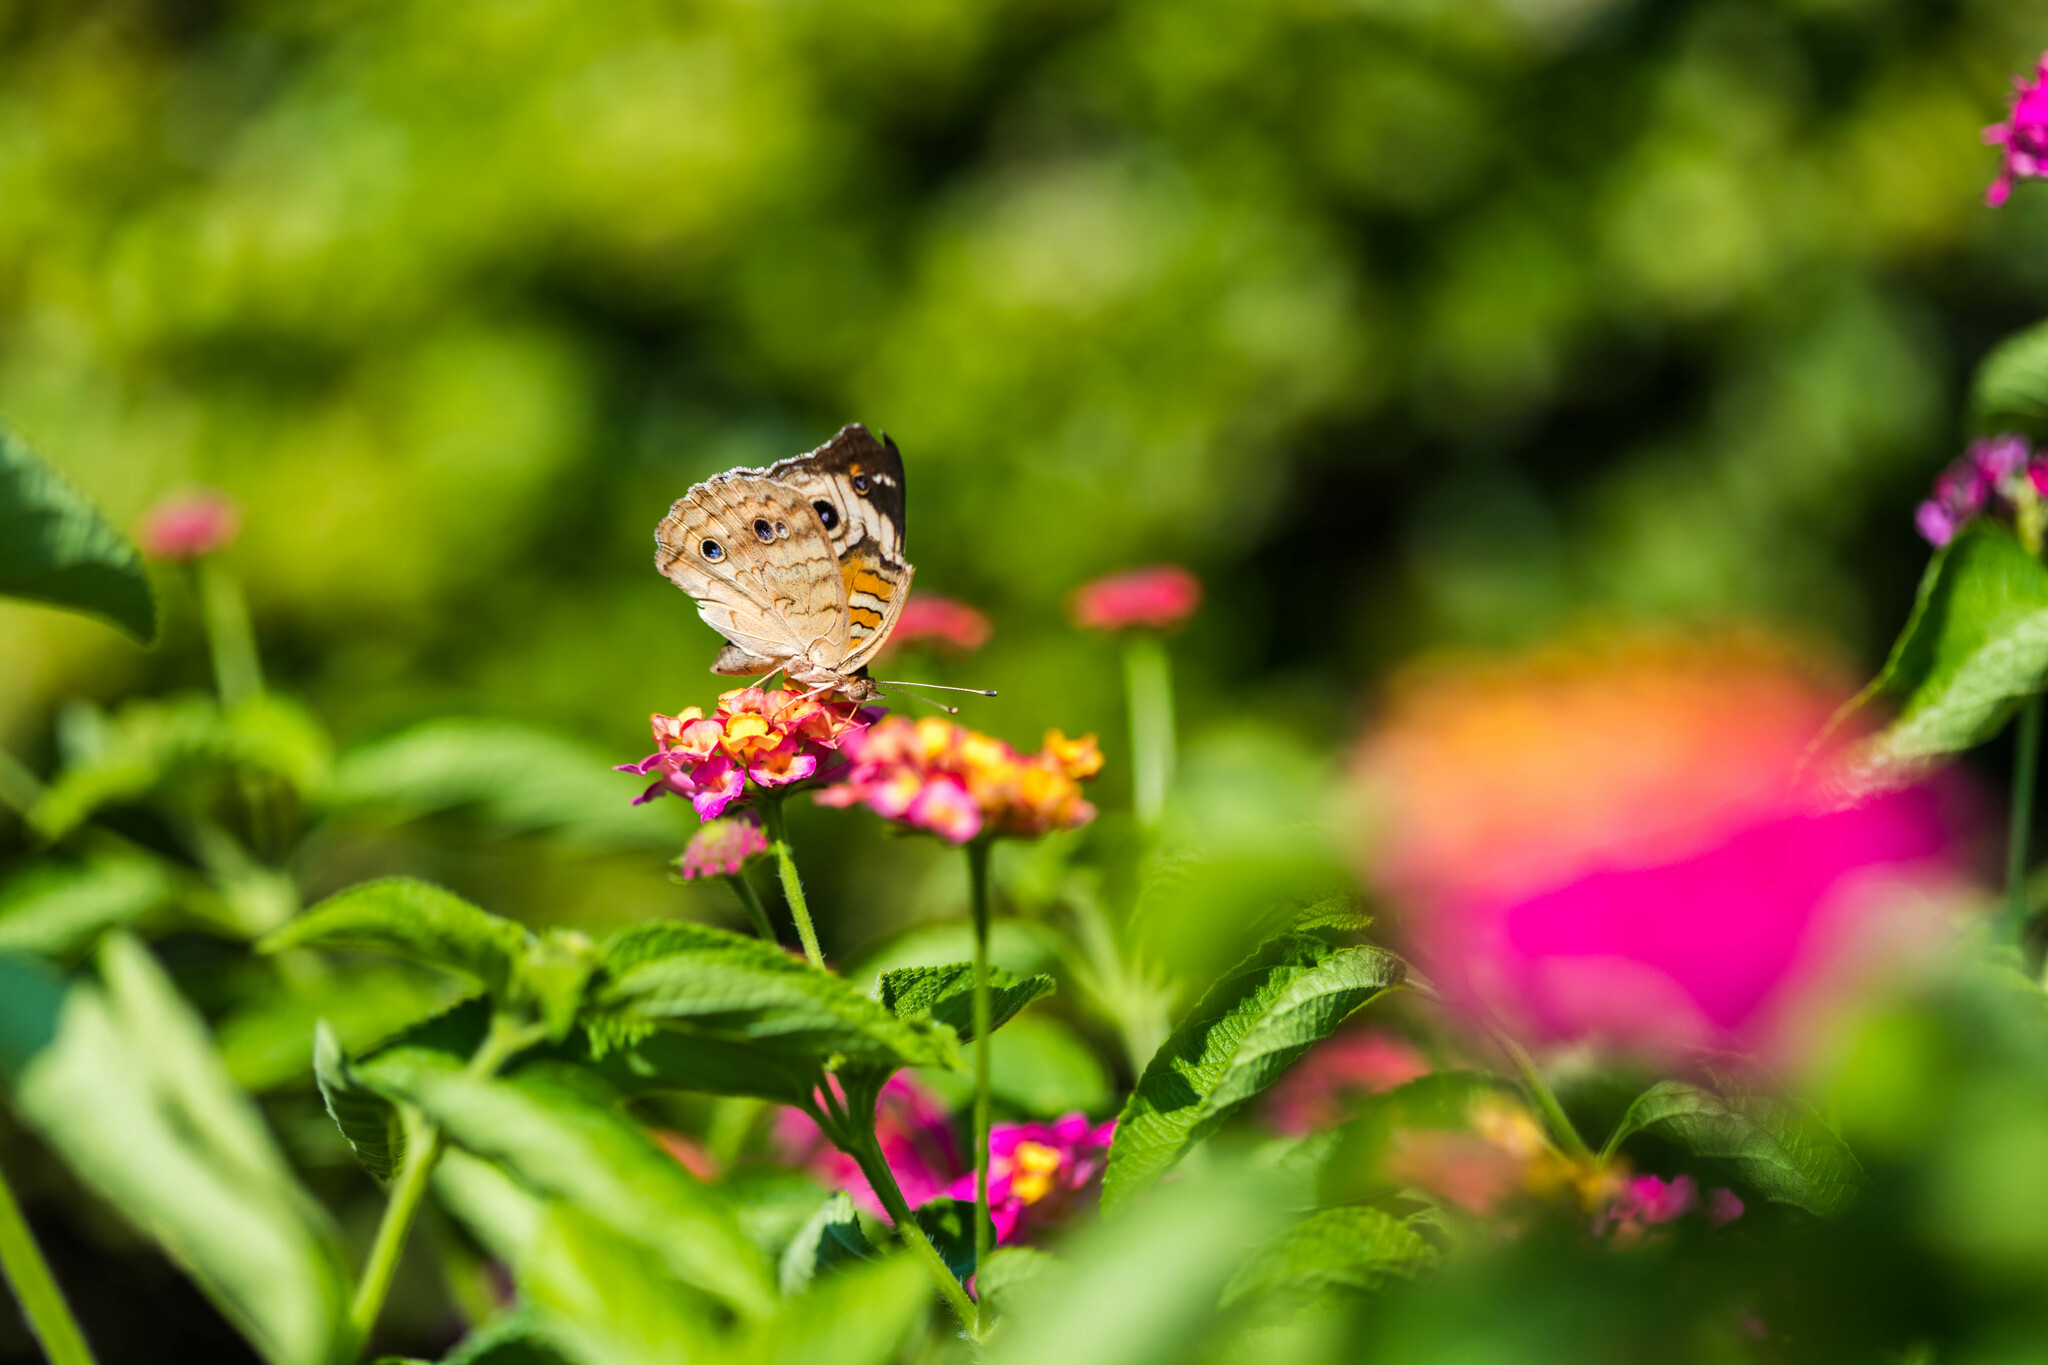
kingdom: Animalia
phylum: Arthropoda
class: Insecta
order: Lepidoptera
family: Nymphalidae
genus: Junonia
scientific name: Junonia coenia
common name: Common buckeye
